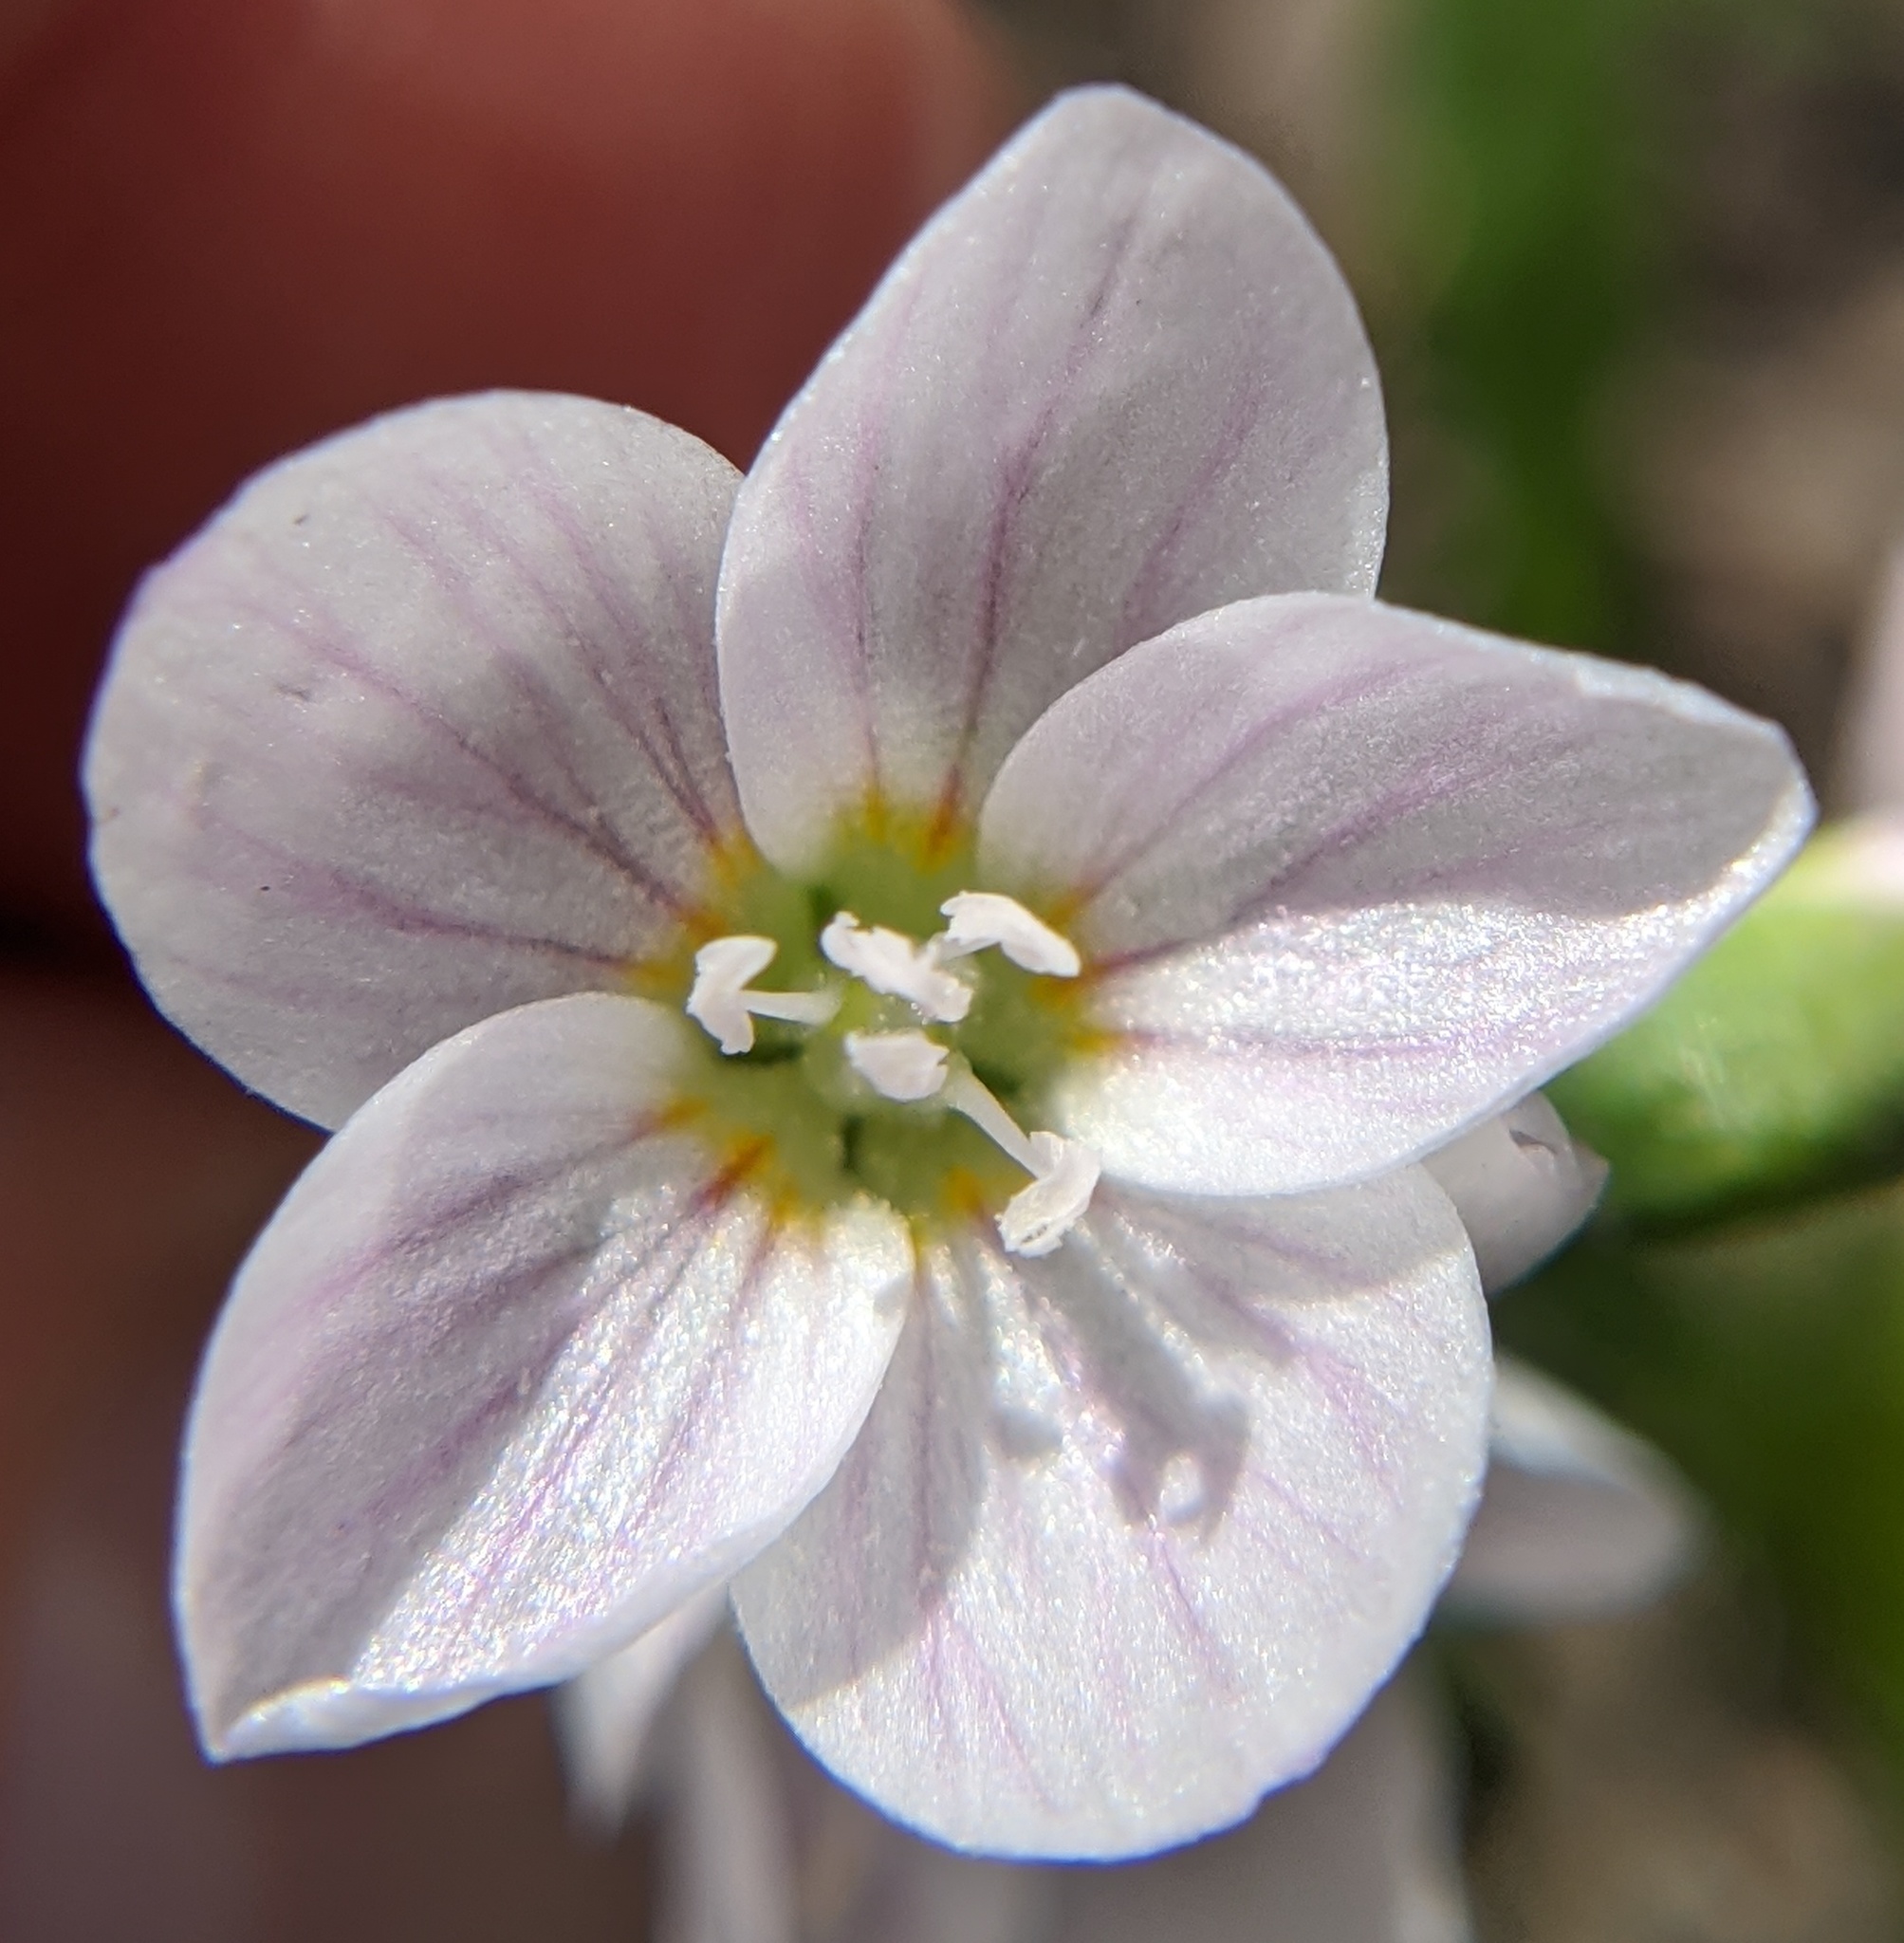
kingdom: Plantae
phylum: Tracheophyta
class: Magnoliopsida
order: Caryophyllales
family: Montiaceae
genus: Claytonia
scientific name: Claytonia virginica
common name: Virginia springbeauty
